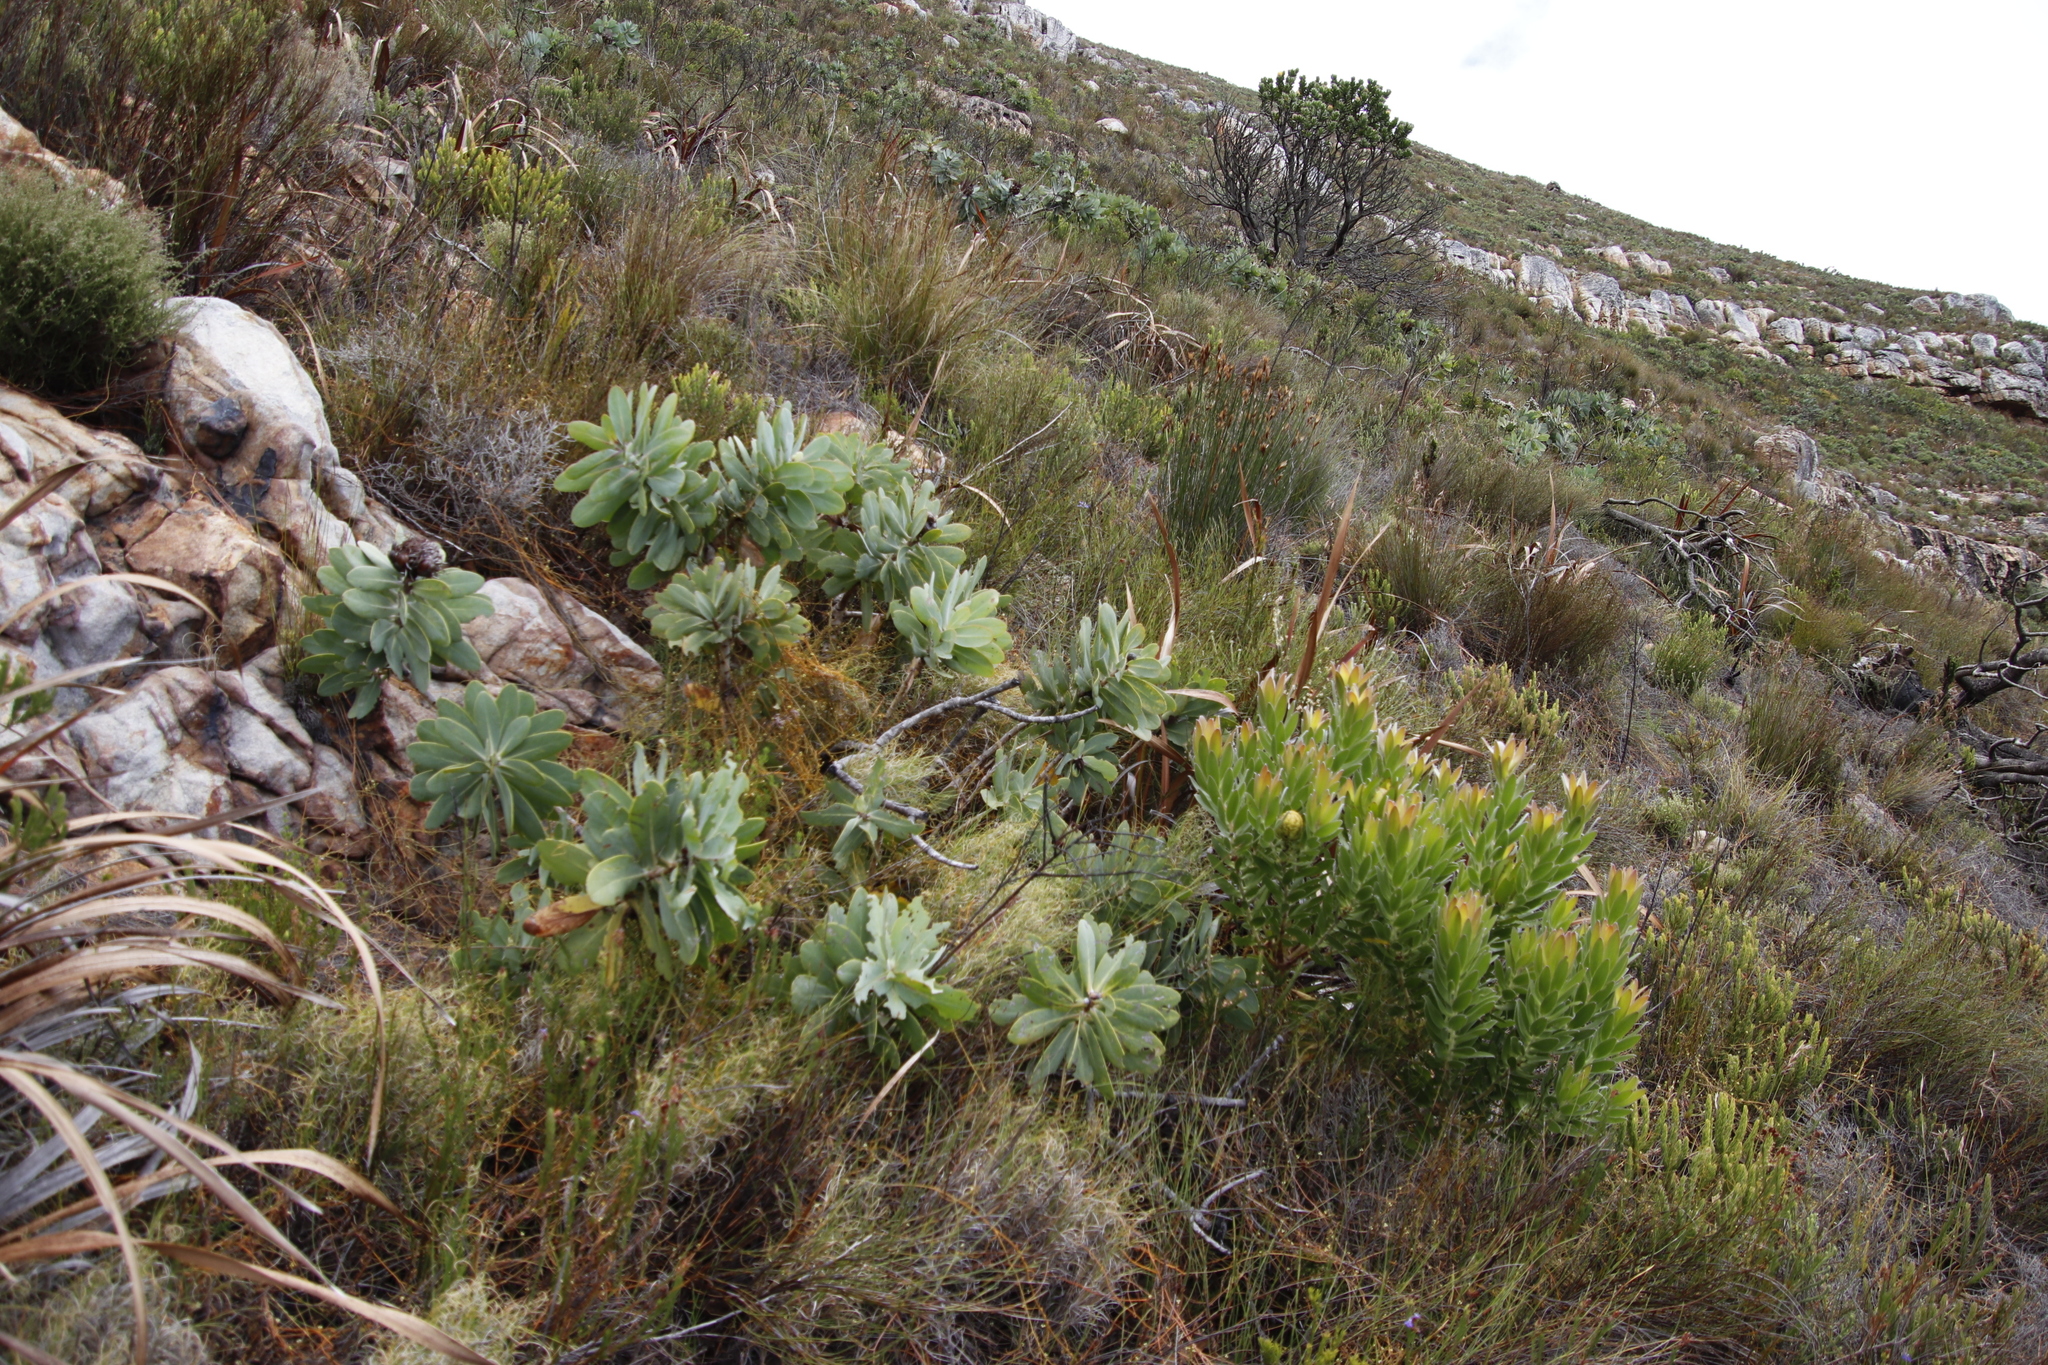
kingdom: Plantae
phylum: Tracheophyta
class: Magnoliopsida
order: Proteales
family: Proteaceae
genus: Protea
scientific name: Protea nitida
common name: Tree protea
